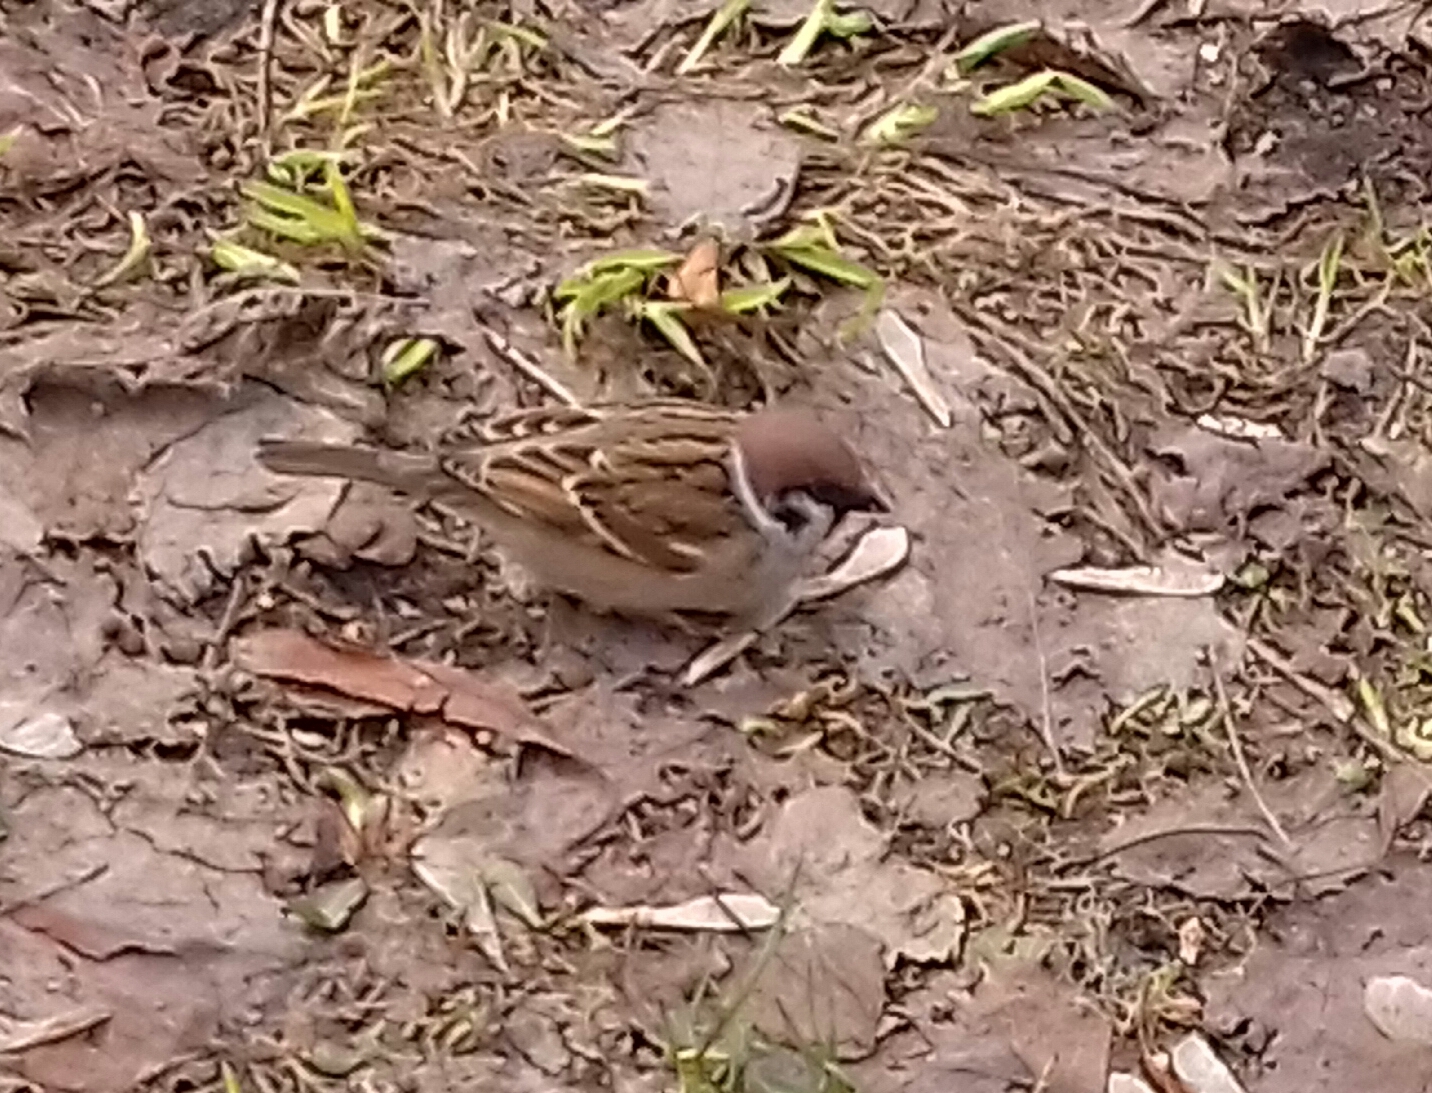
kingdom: Animalia
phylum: Chordata
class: Aves
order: Passeriformes
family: Passeridae
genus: Passer
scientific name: Passer montanus
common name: Eurasian tree sparrow
